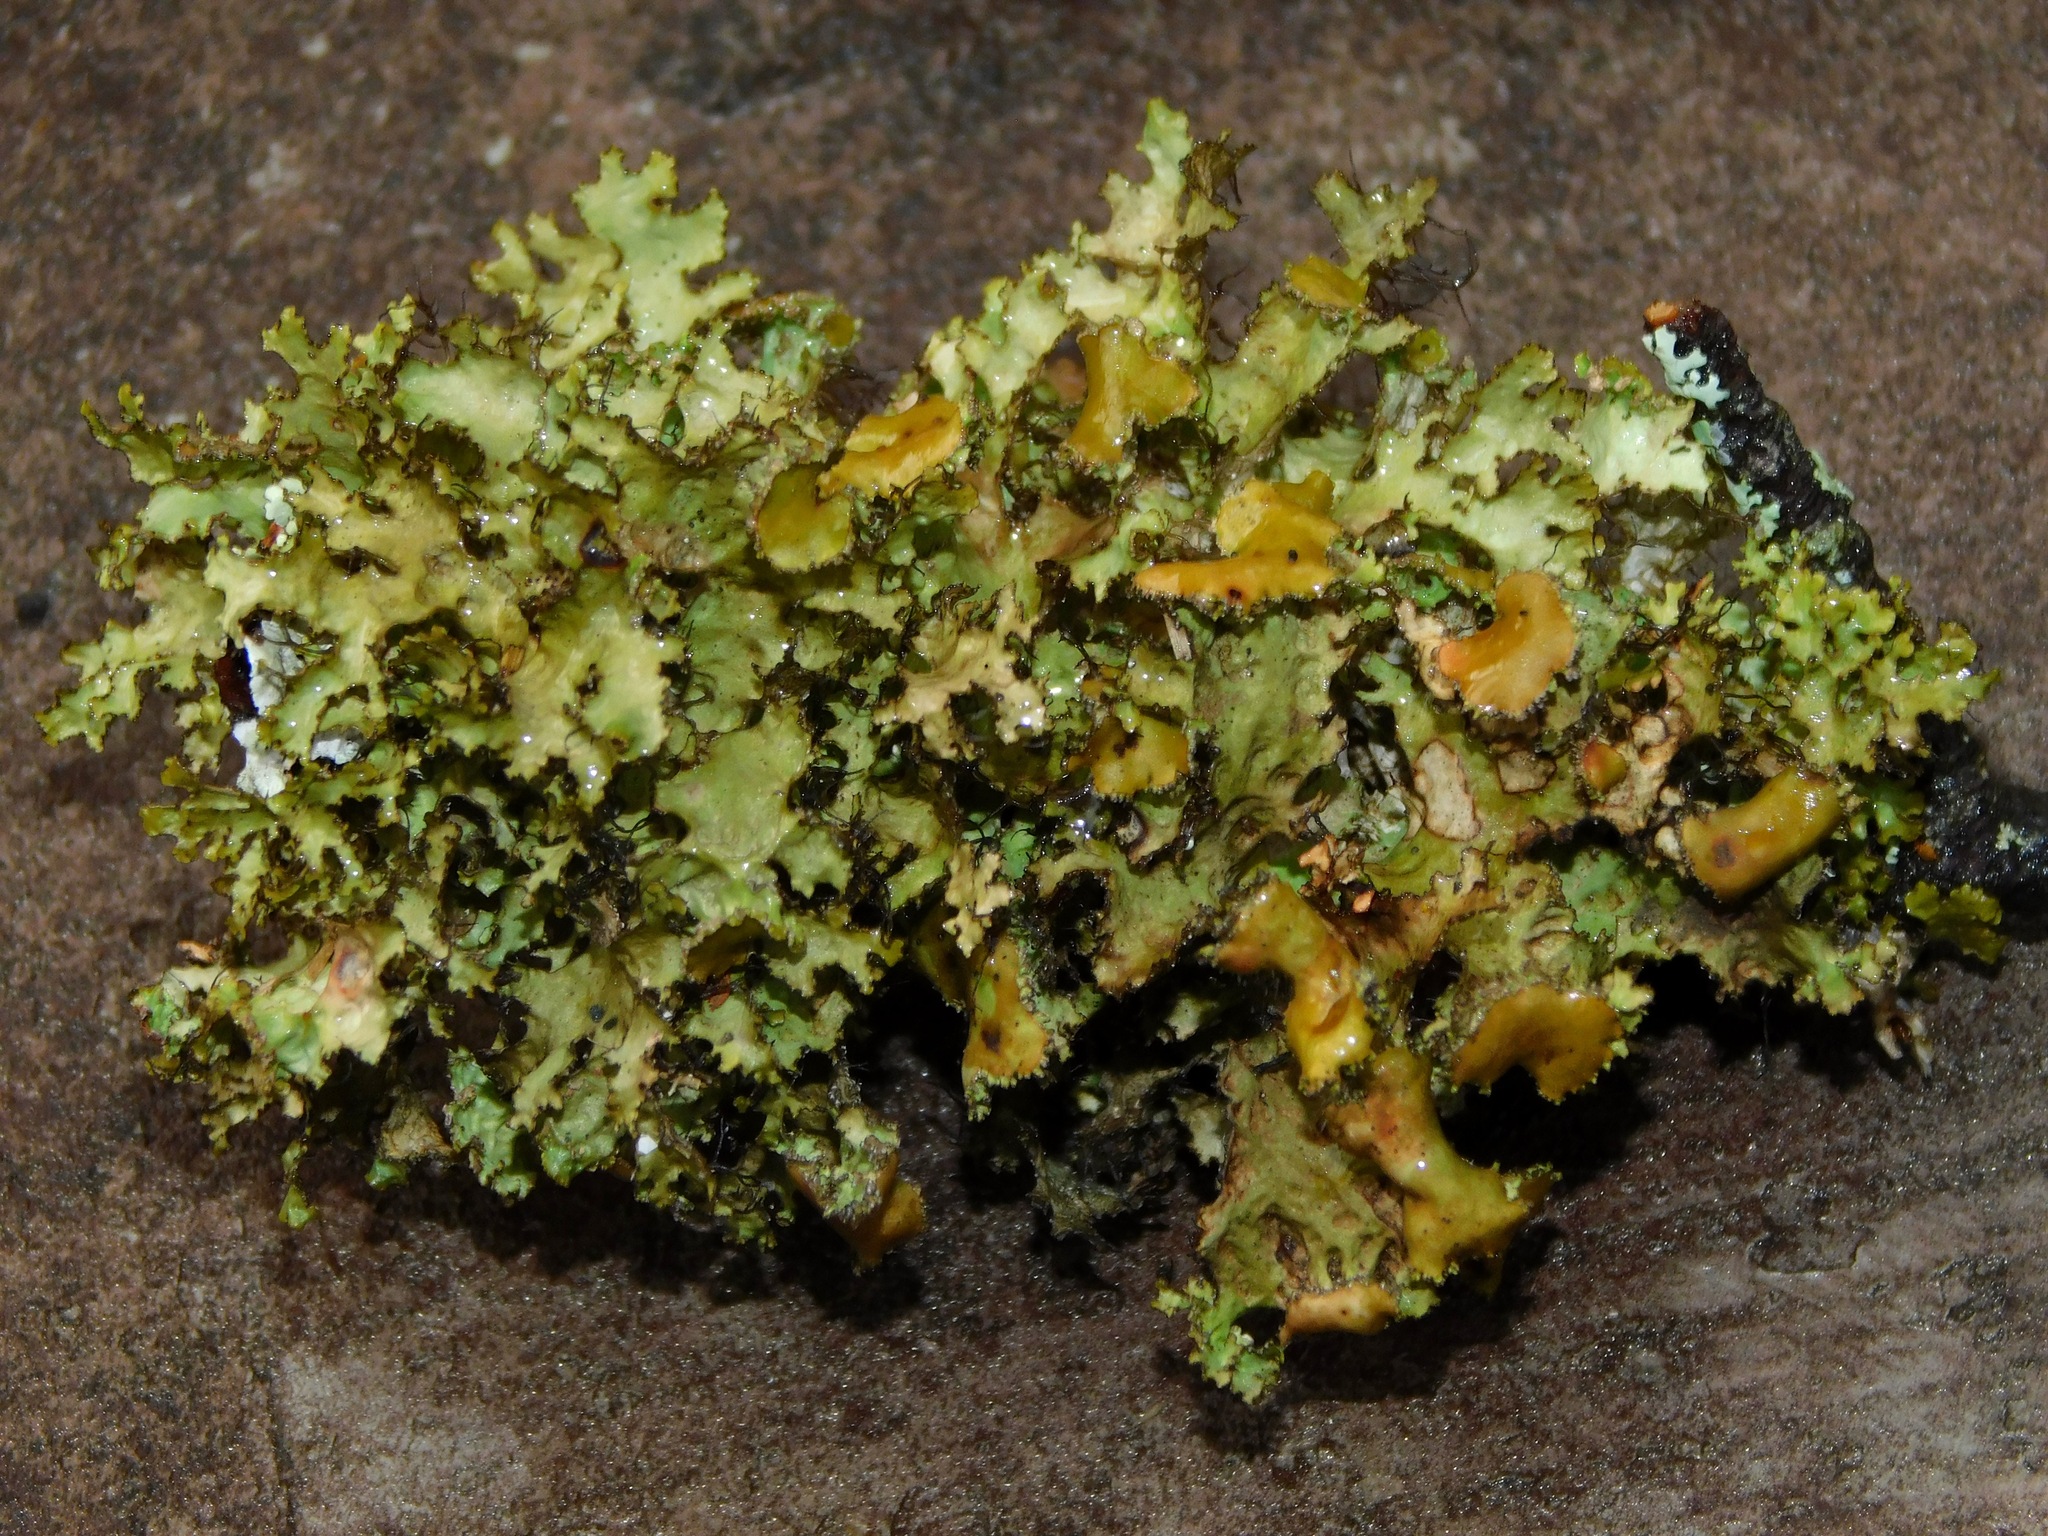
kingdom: Fungi
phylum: Ascomycota
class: Lecanoromycetes
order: Lecanorales
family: Parmeliaceae
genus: Tuckermannopsis
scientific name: Tuckermannopsis ciliaris
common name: Ciliate wrinkle-lichen
